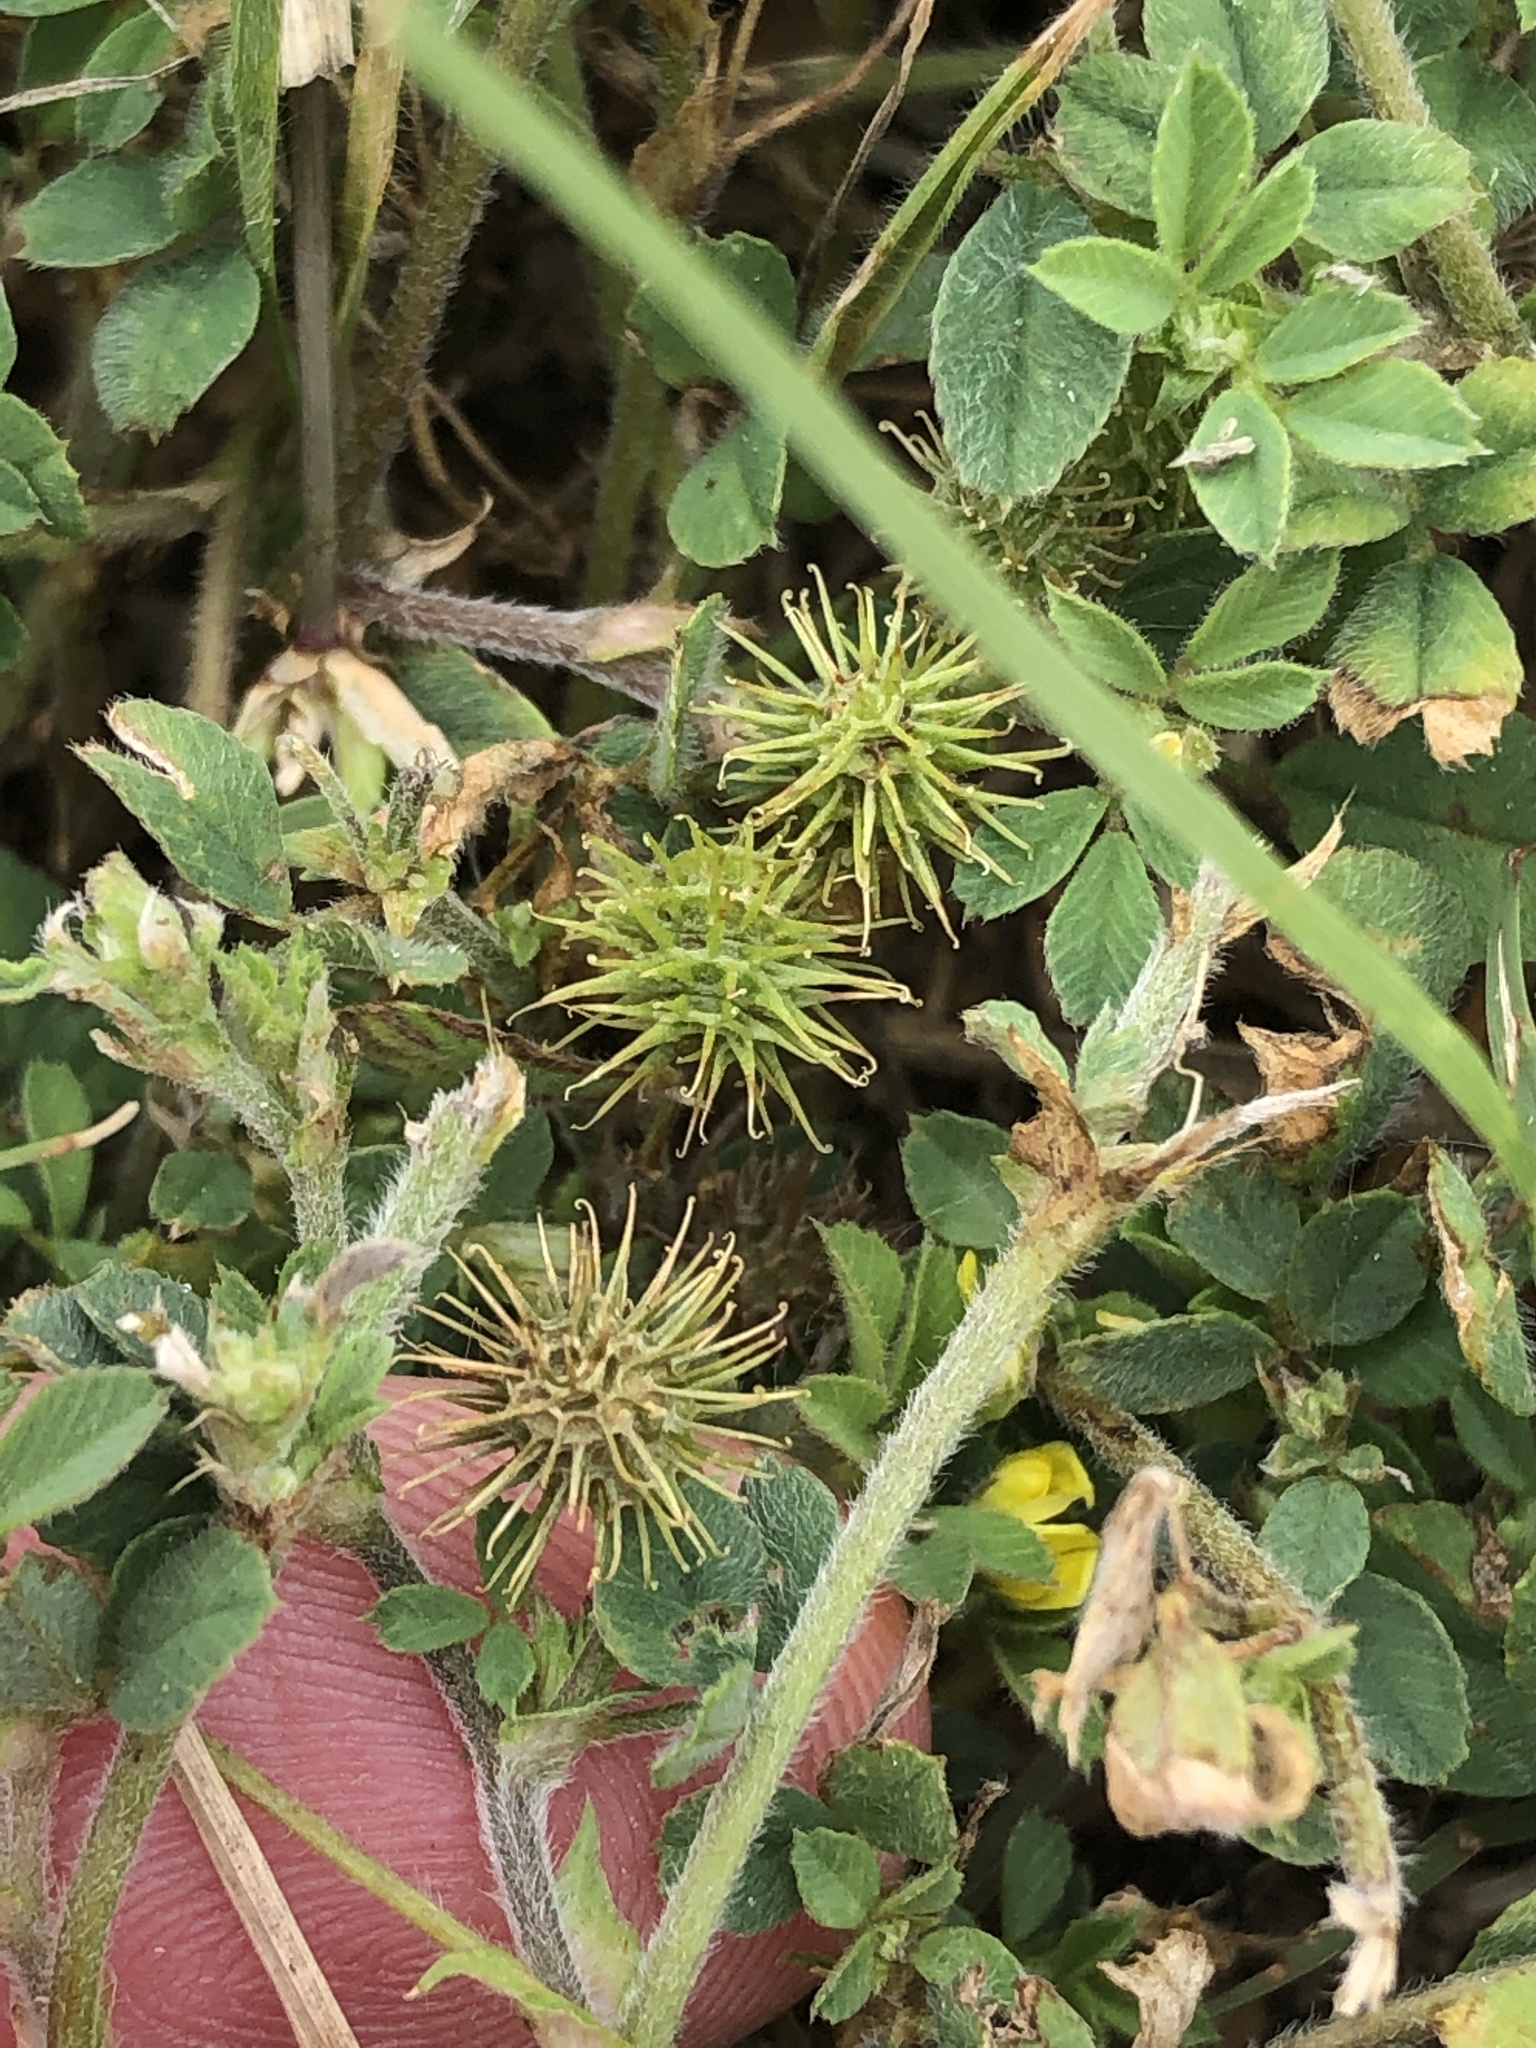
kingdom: Plantae
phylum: Tracheophyta
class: Magnoliopsida
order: Fabales
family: Fabaceae
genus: Medicago
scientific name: Medicago minima
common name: Little bur-clover
